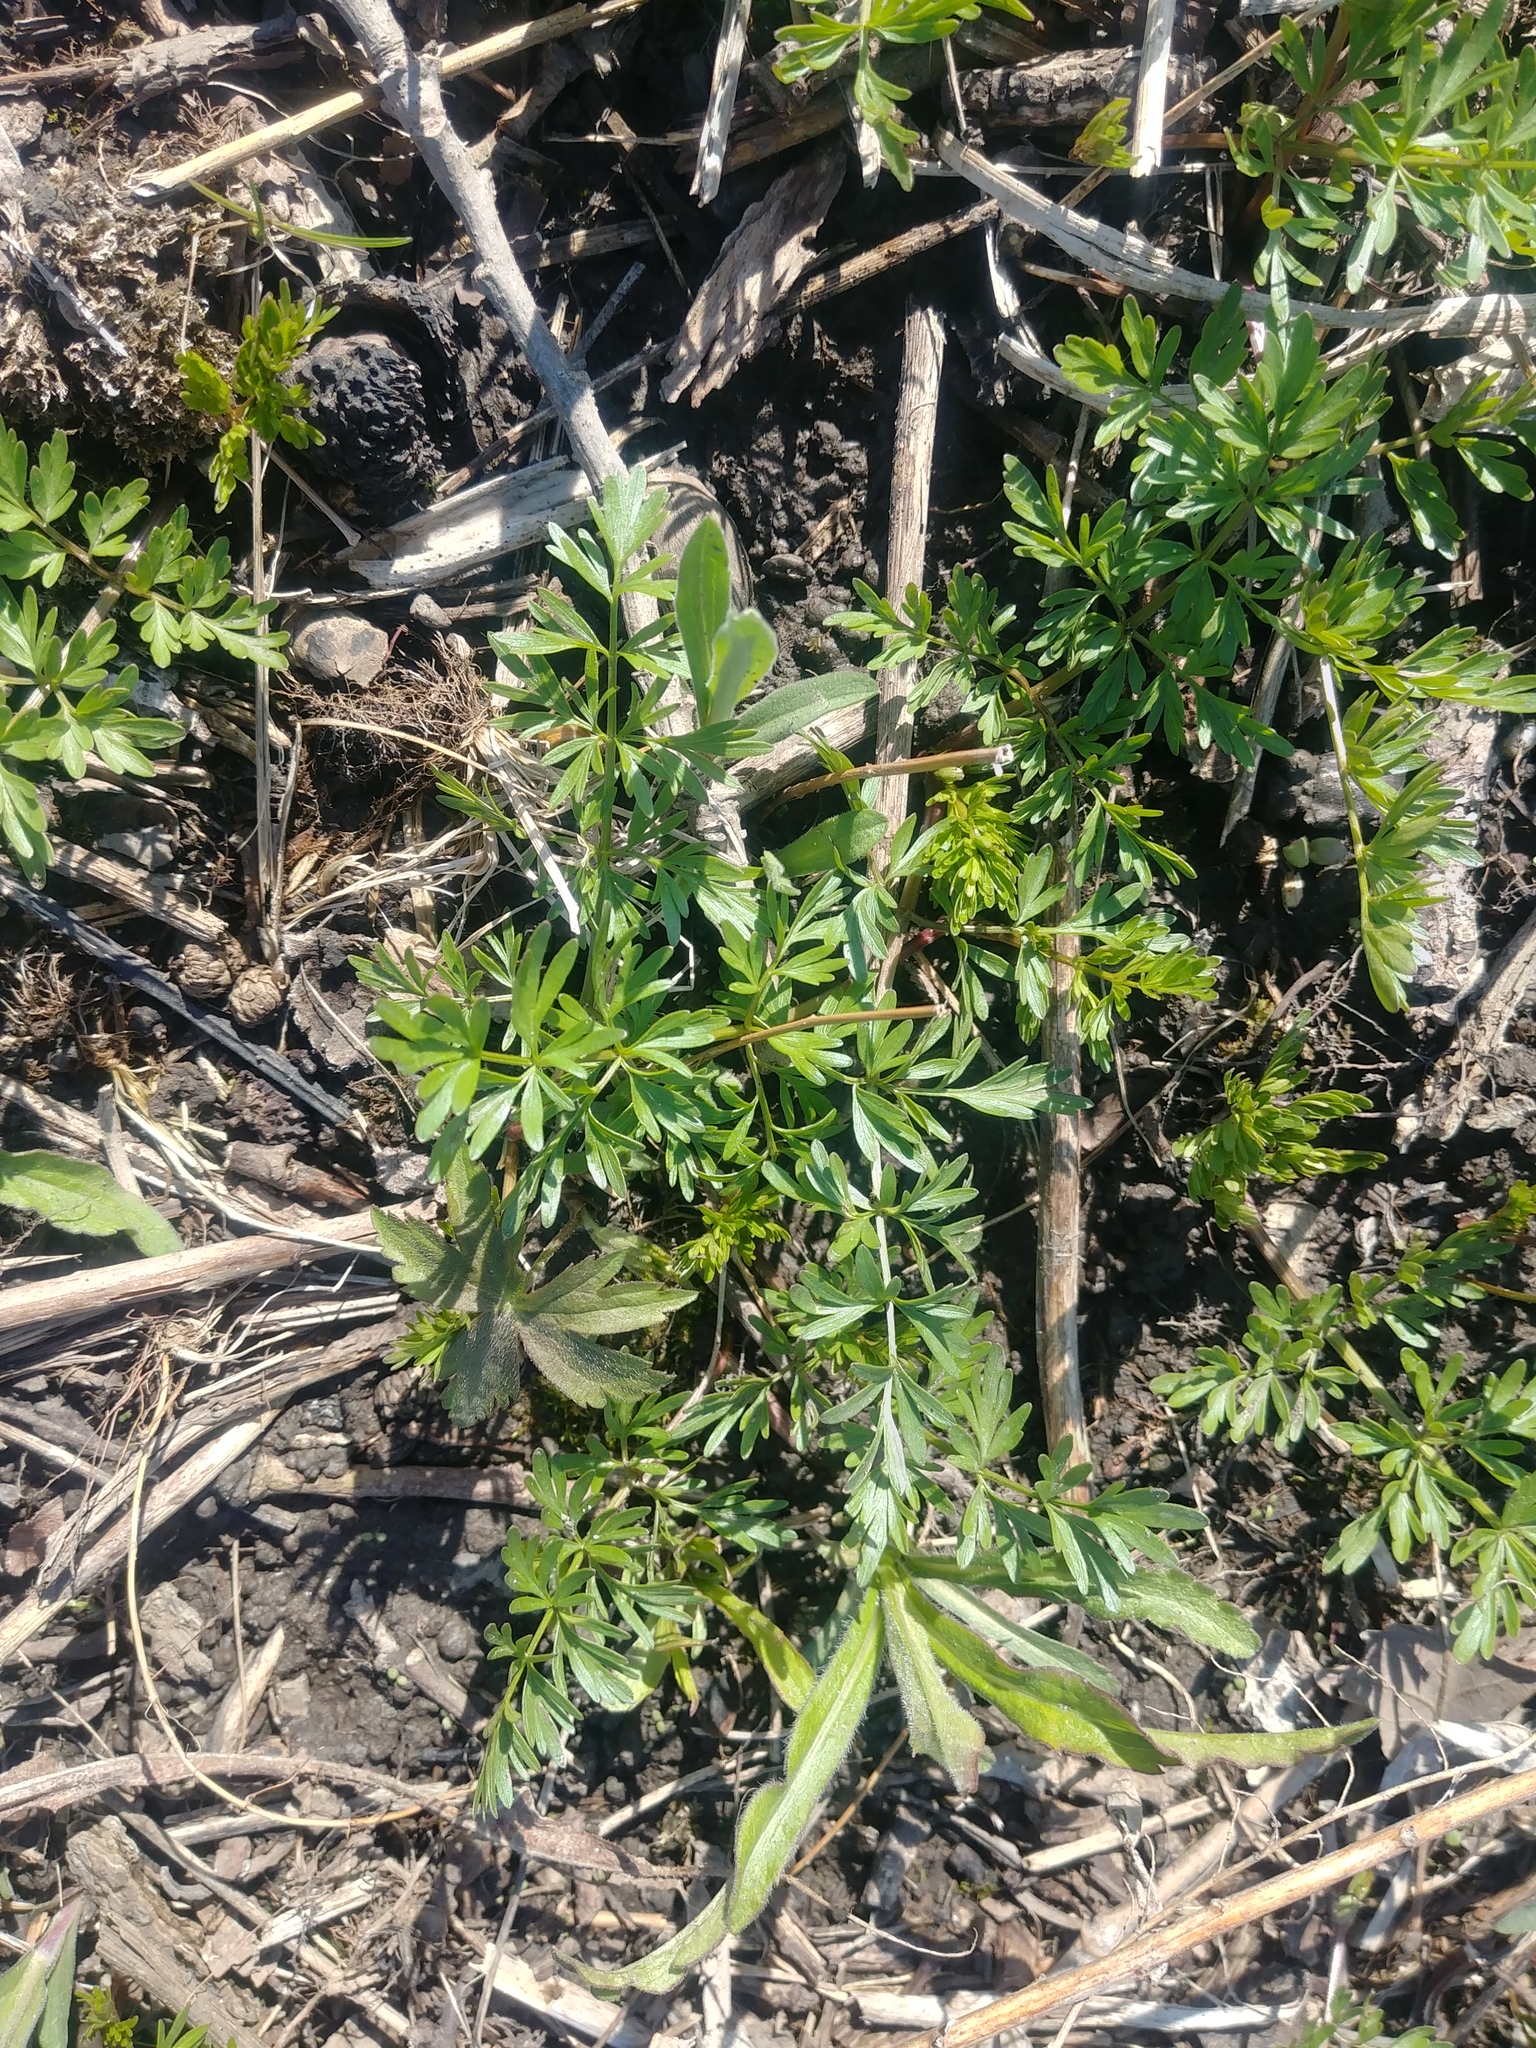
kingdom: Plantae
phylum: Tracheophyta
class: Magnoliopsida
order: Apiales
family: Apiaceae
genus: Perideridia
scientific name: Perideridia americana
